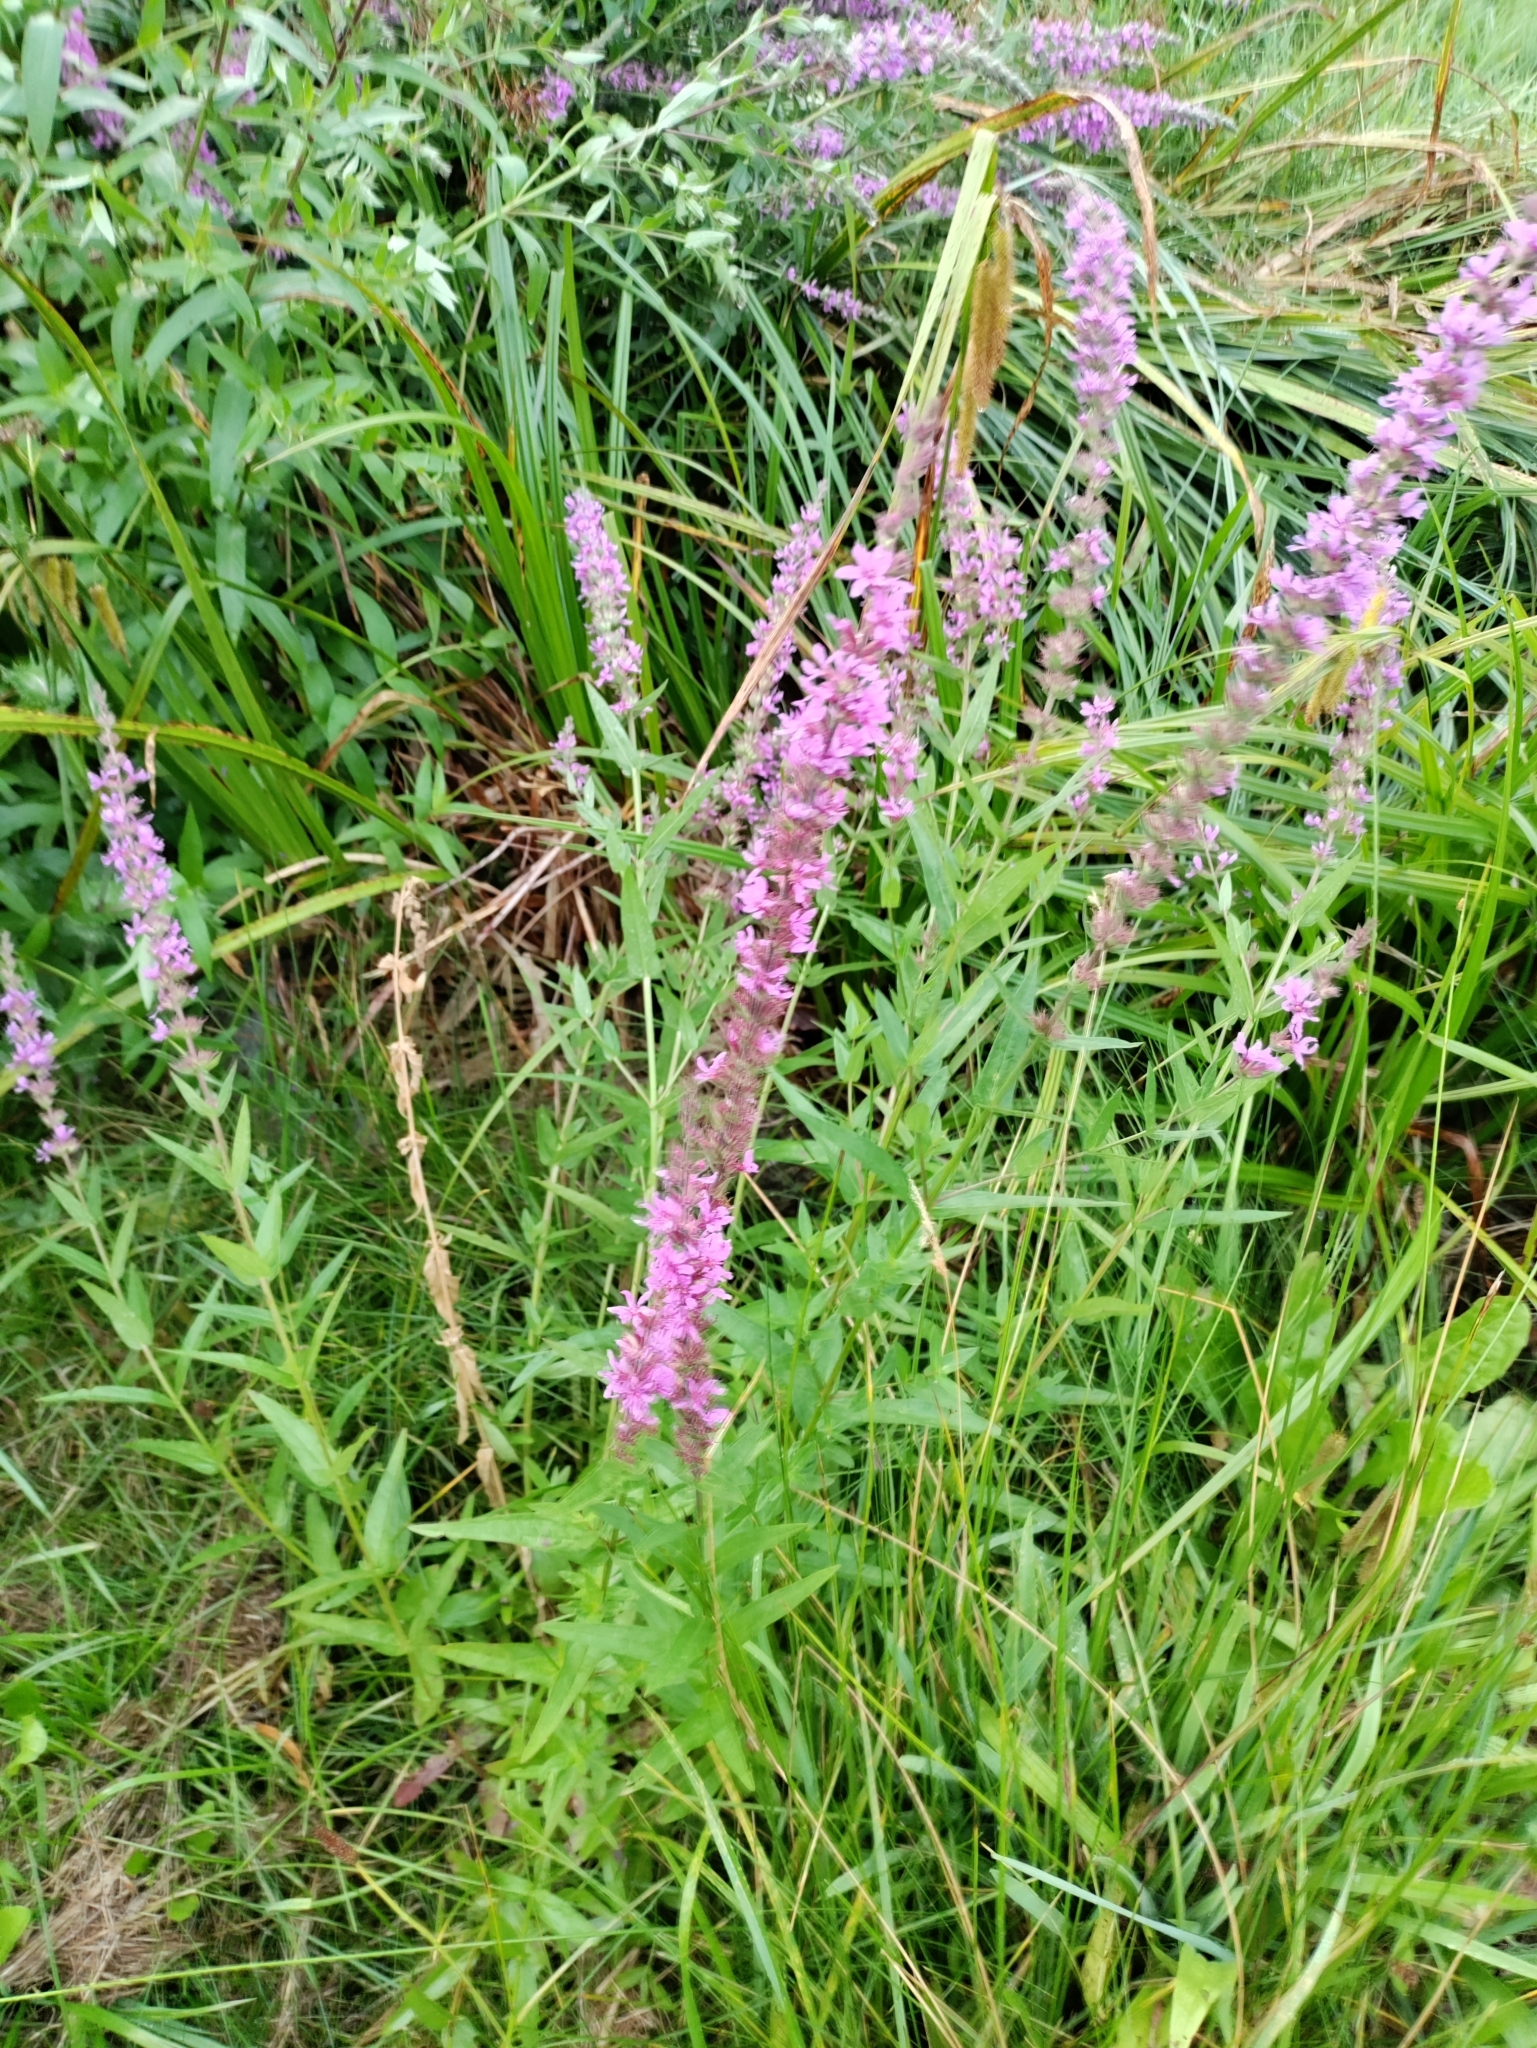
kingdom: Plantae
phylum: Tracheophyta
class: Magnoliopsida
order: Myrtales
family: Lythraceae
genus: Lythrum
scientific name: Lythrum salicaria
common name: Purple loosestrife
